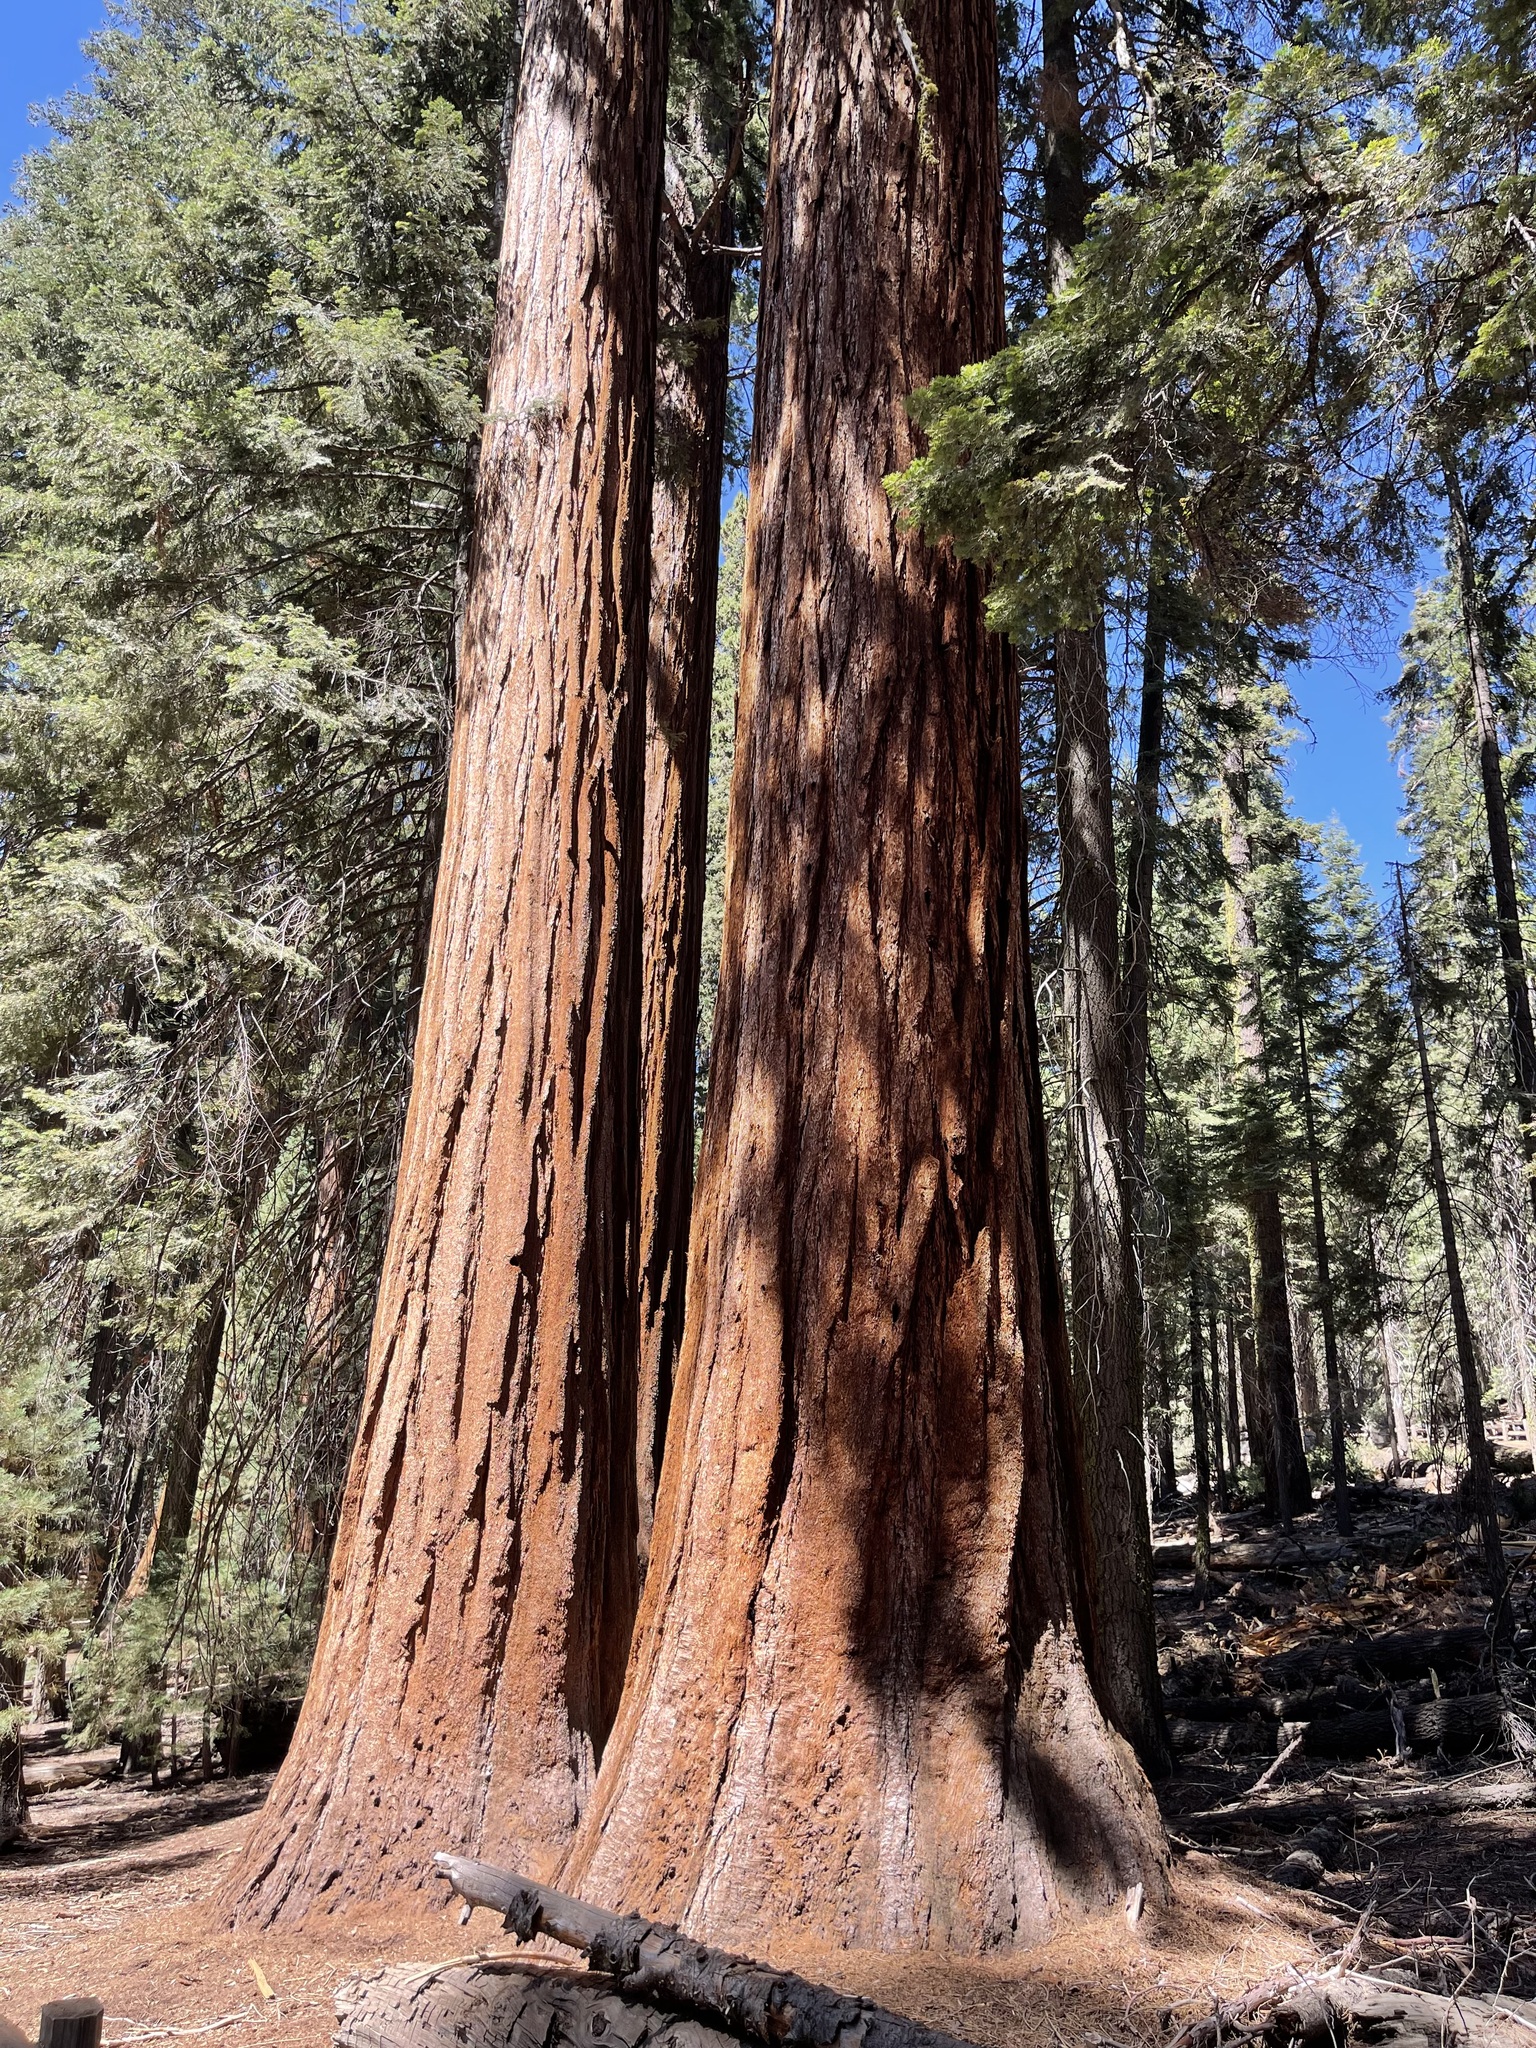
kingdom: Plantae
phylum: Tracheophyta
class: Pinopsida
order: Pinales
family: Cupressaceae
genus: Sequoiadendron
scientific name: Sequoiadendron giganteum
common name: Wellingtonia
